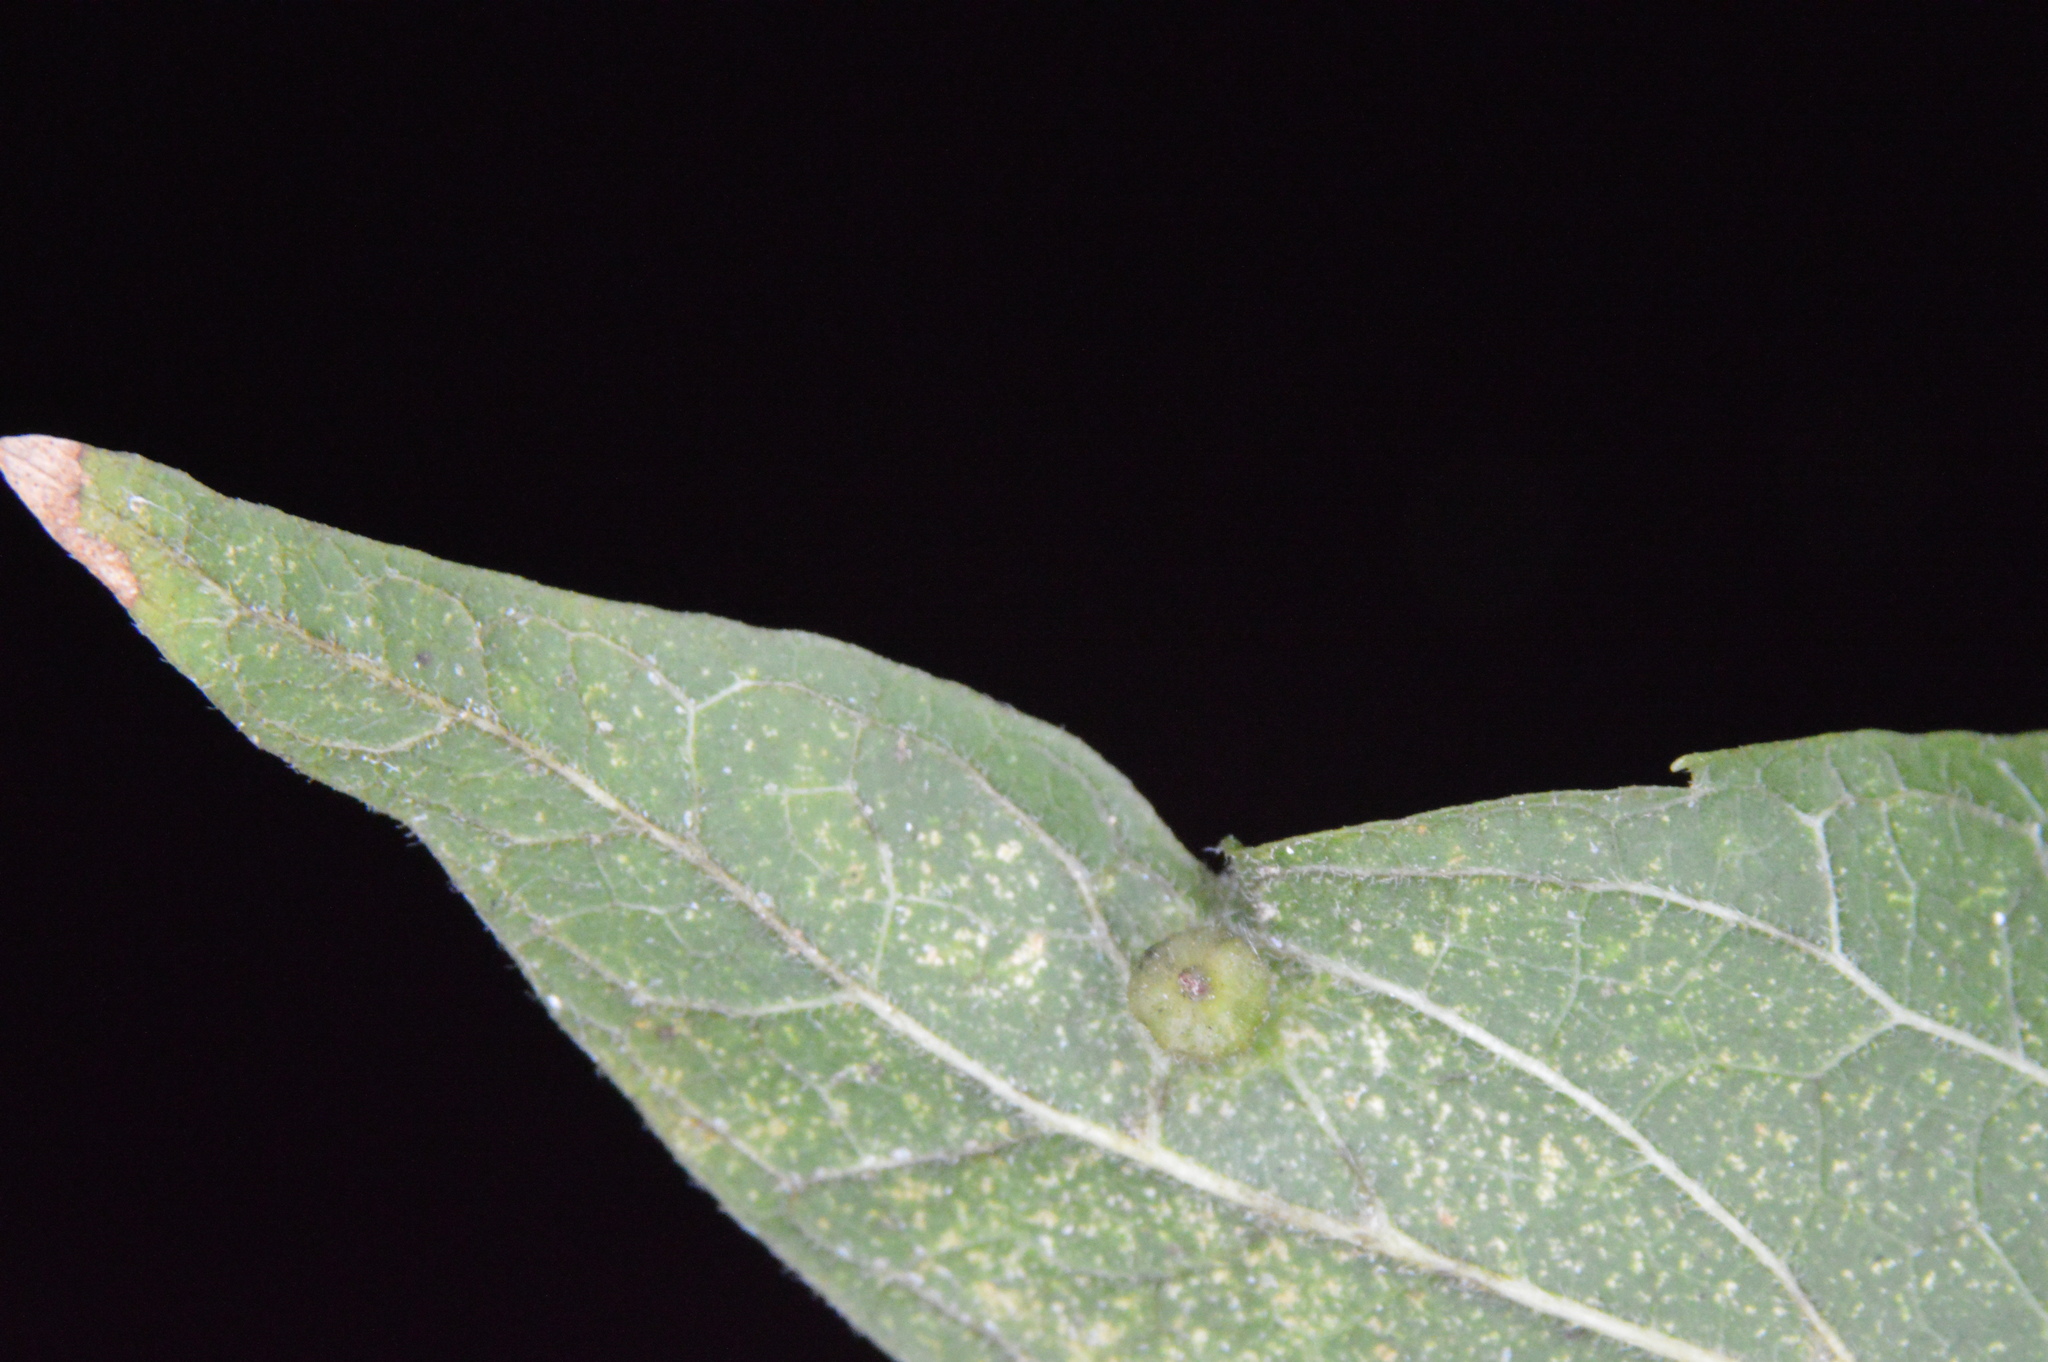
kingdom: Animalia
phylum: Arthropoda
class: Insecta
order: Diptera
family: Cecidomyiidae
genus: Celticecis
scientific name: Celticecis ramicola
